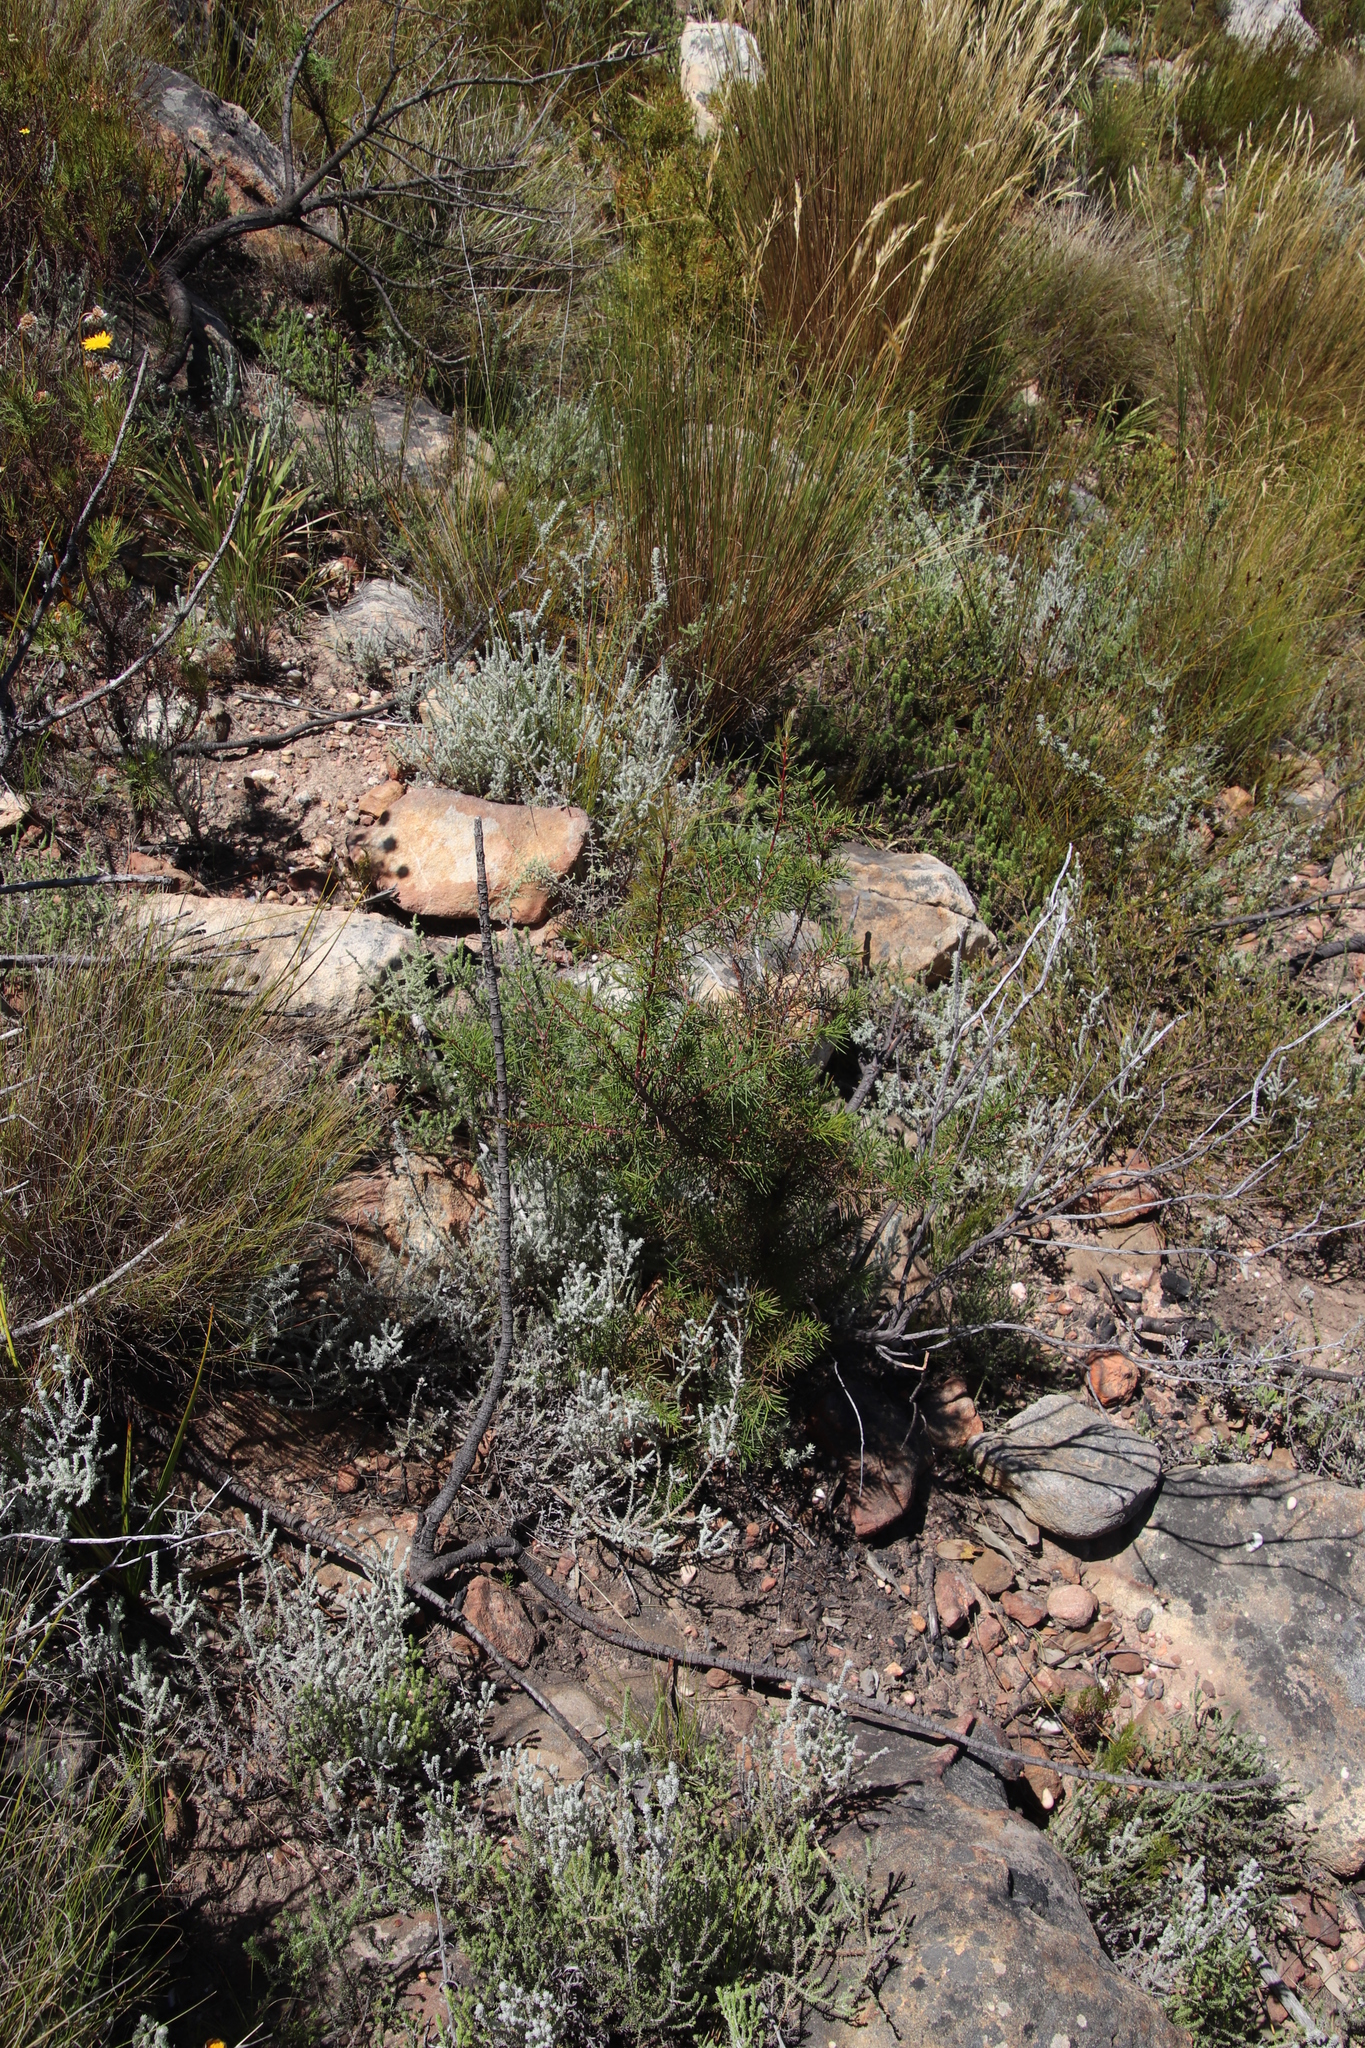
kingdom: Plantae
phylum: Tracheophyta
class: Magnoliopsida
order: Proteales
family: Proteaceae
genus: Hakea
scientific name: Hakea sericea
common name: Needle bush
